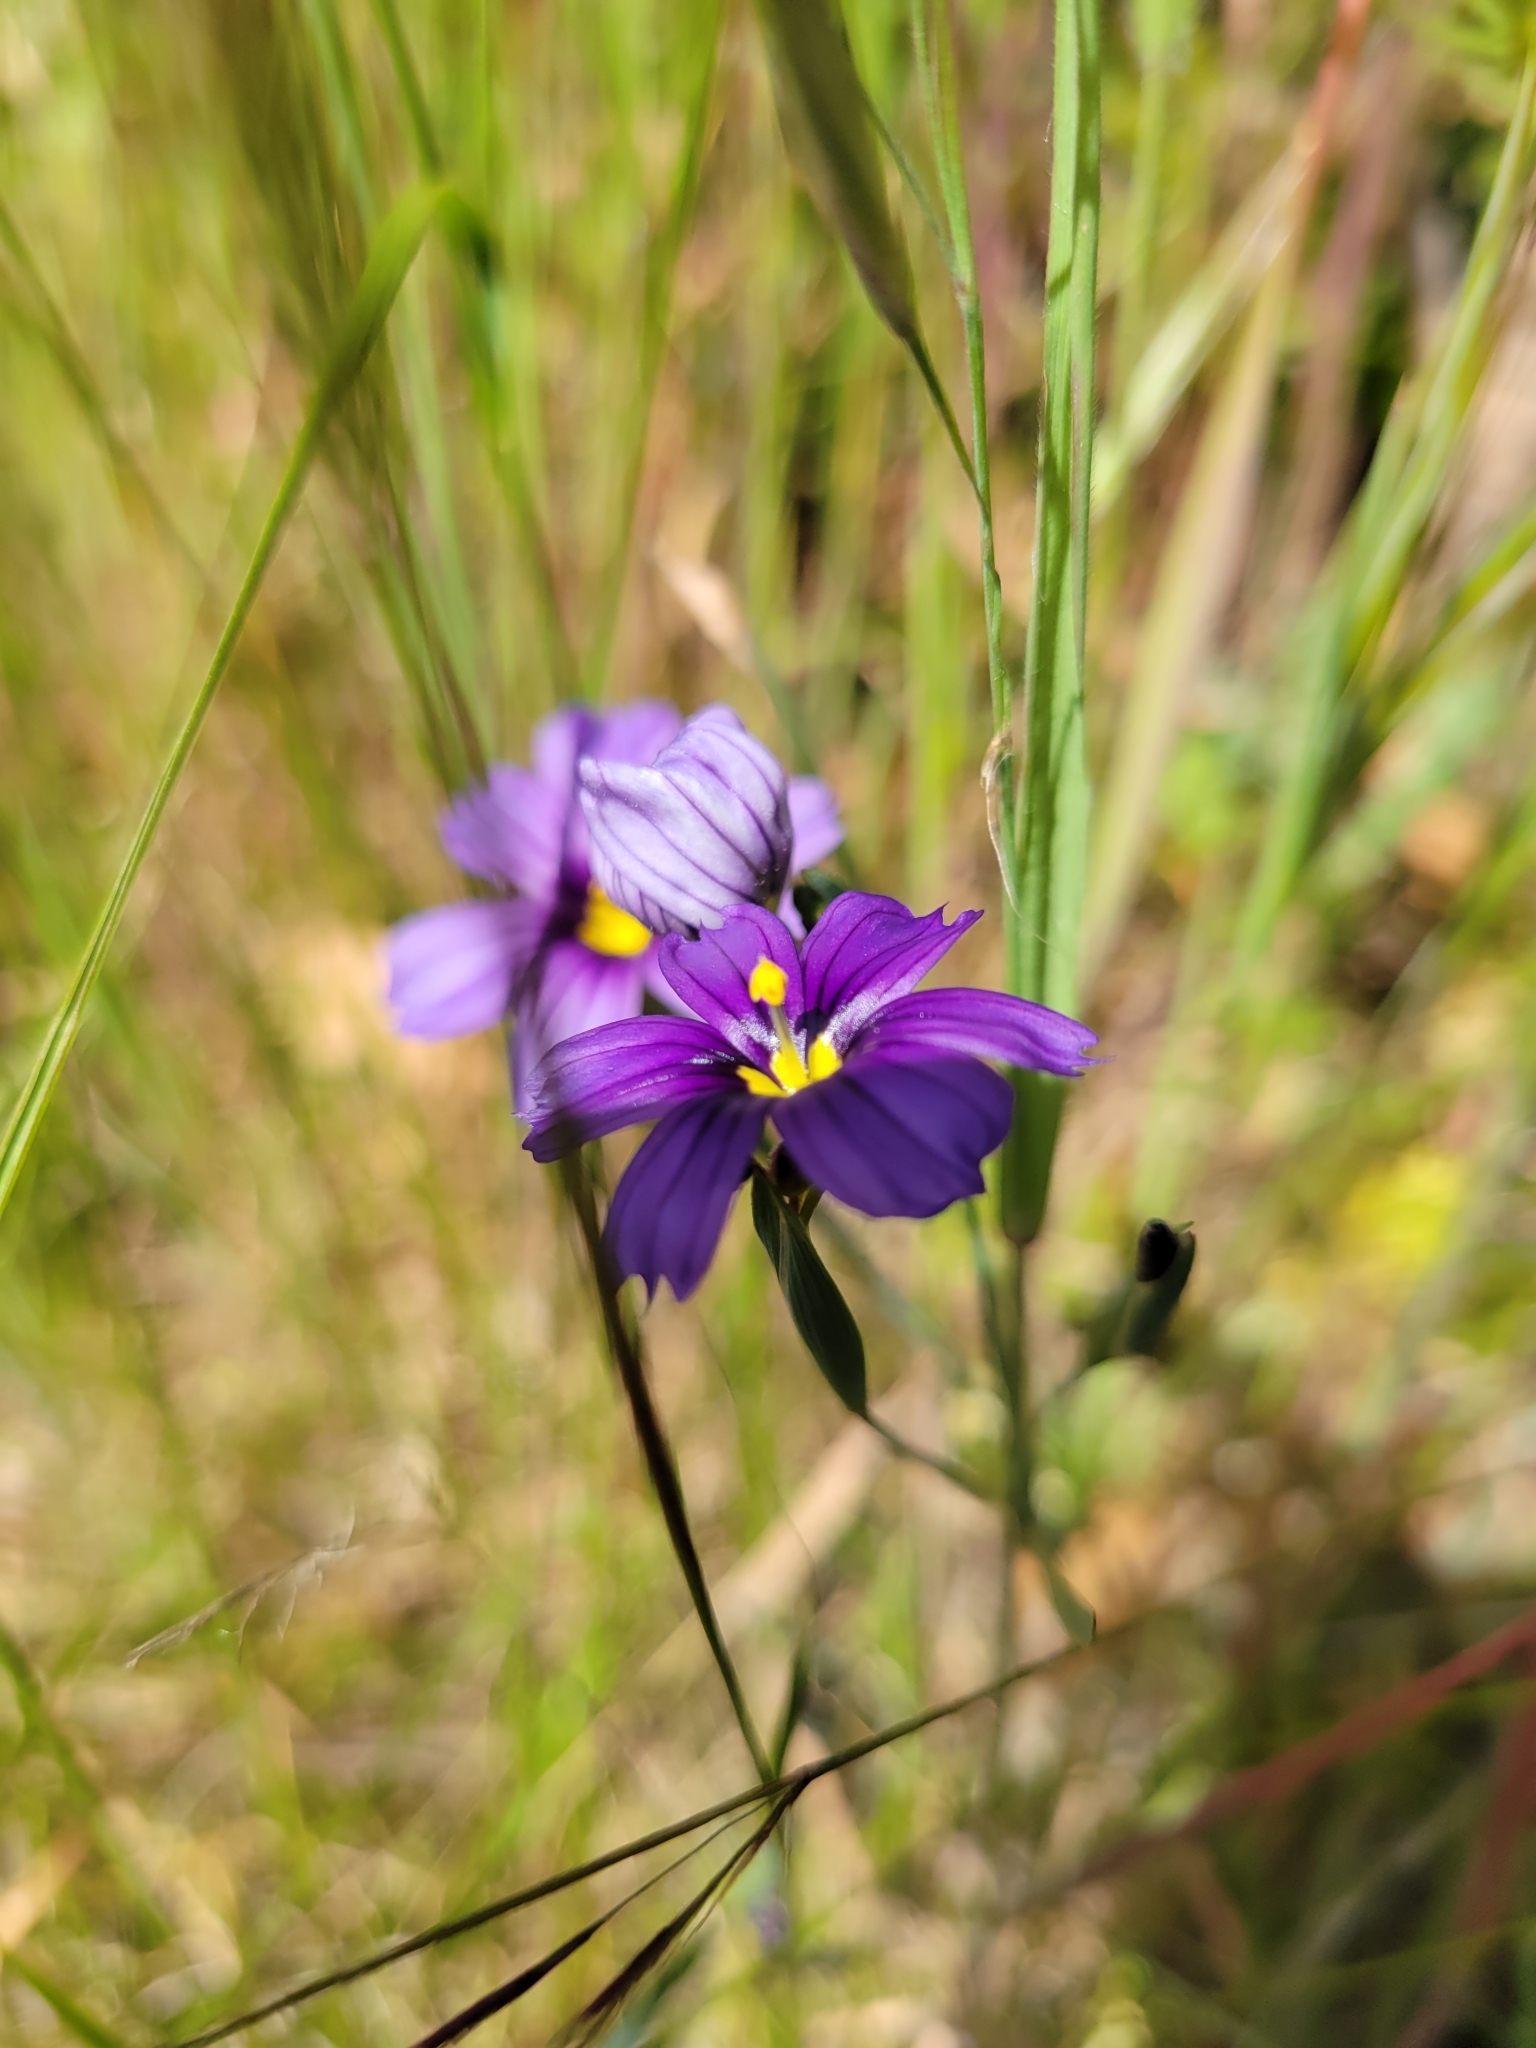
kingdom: Plantae
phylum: Tracheophyta
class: Liliopsida
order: Asparagales
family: Iridaceae
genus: Sisyrinchium
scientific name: Sisyrinchium bellum
